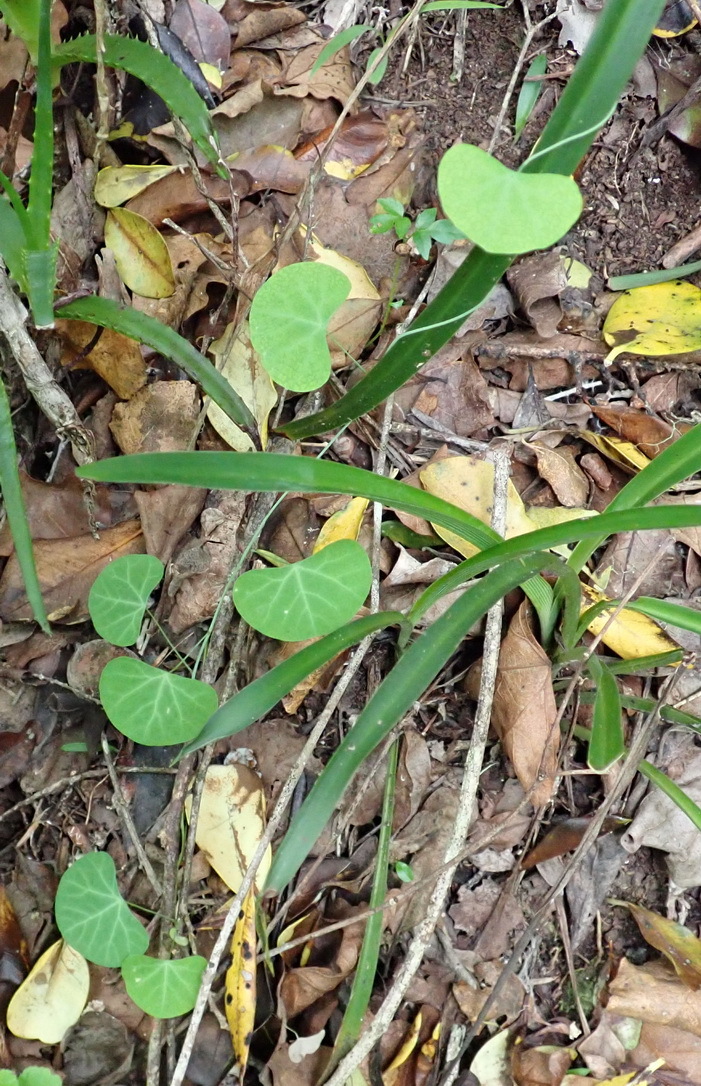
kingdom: Plantae
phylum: Tracheophyta
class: Magnoliopsida
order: Ranunculales
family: Menispermaceae
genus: Cissampelos
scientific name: Cissampelos torulosa
